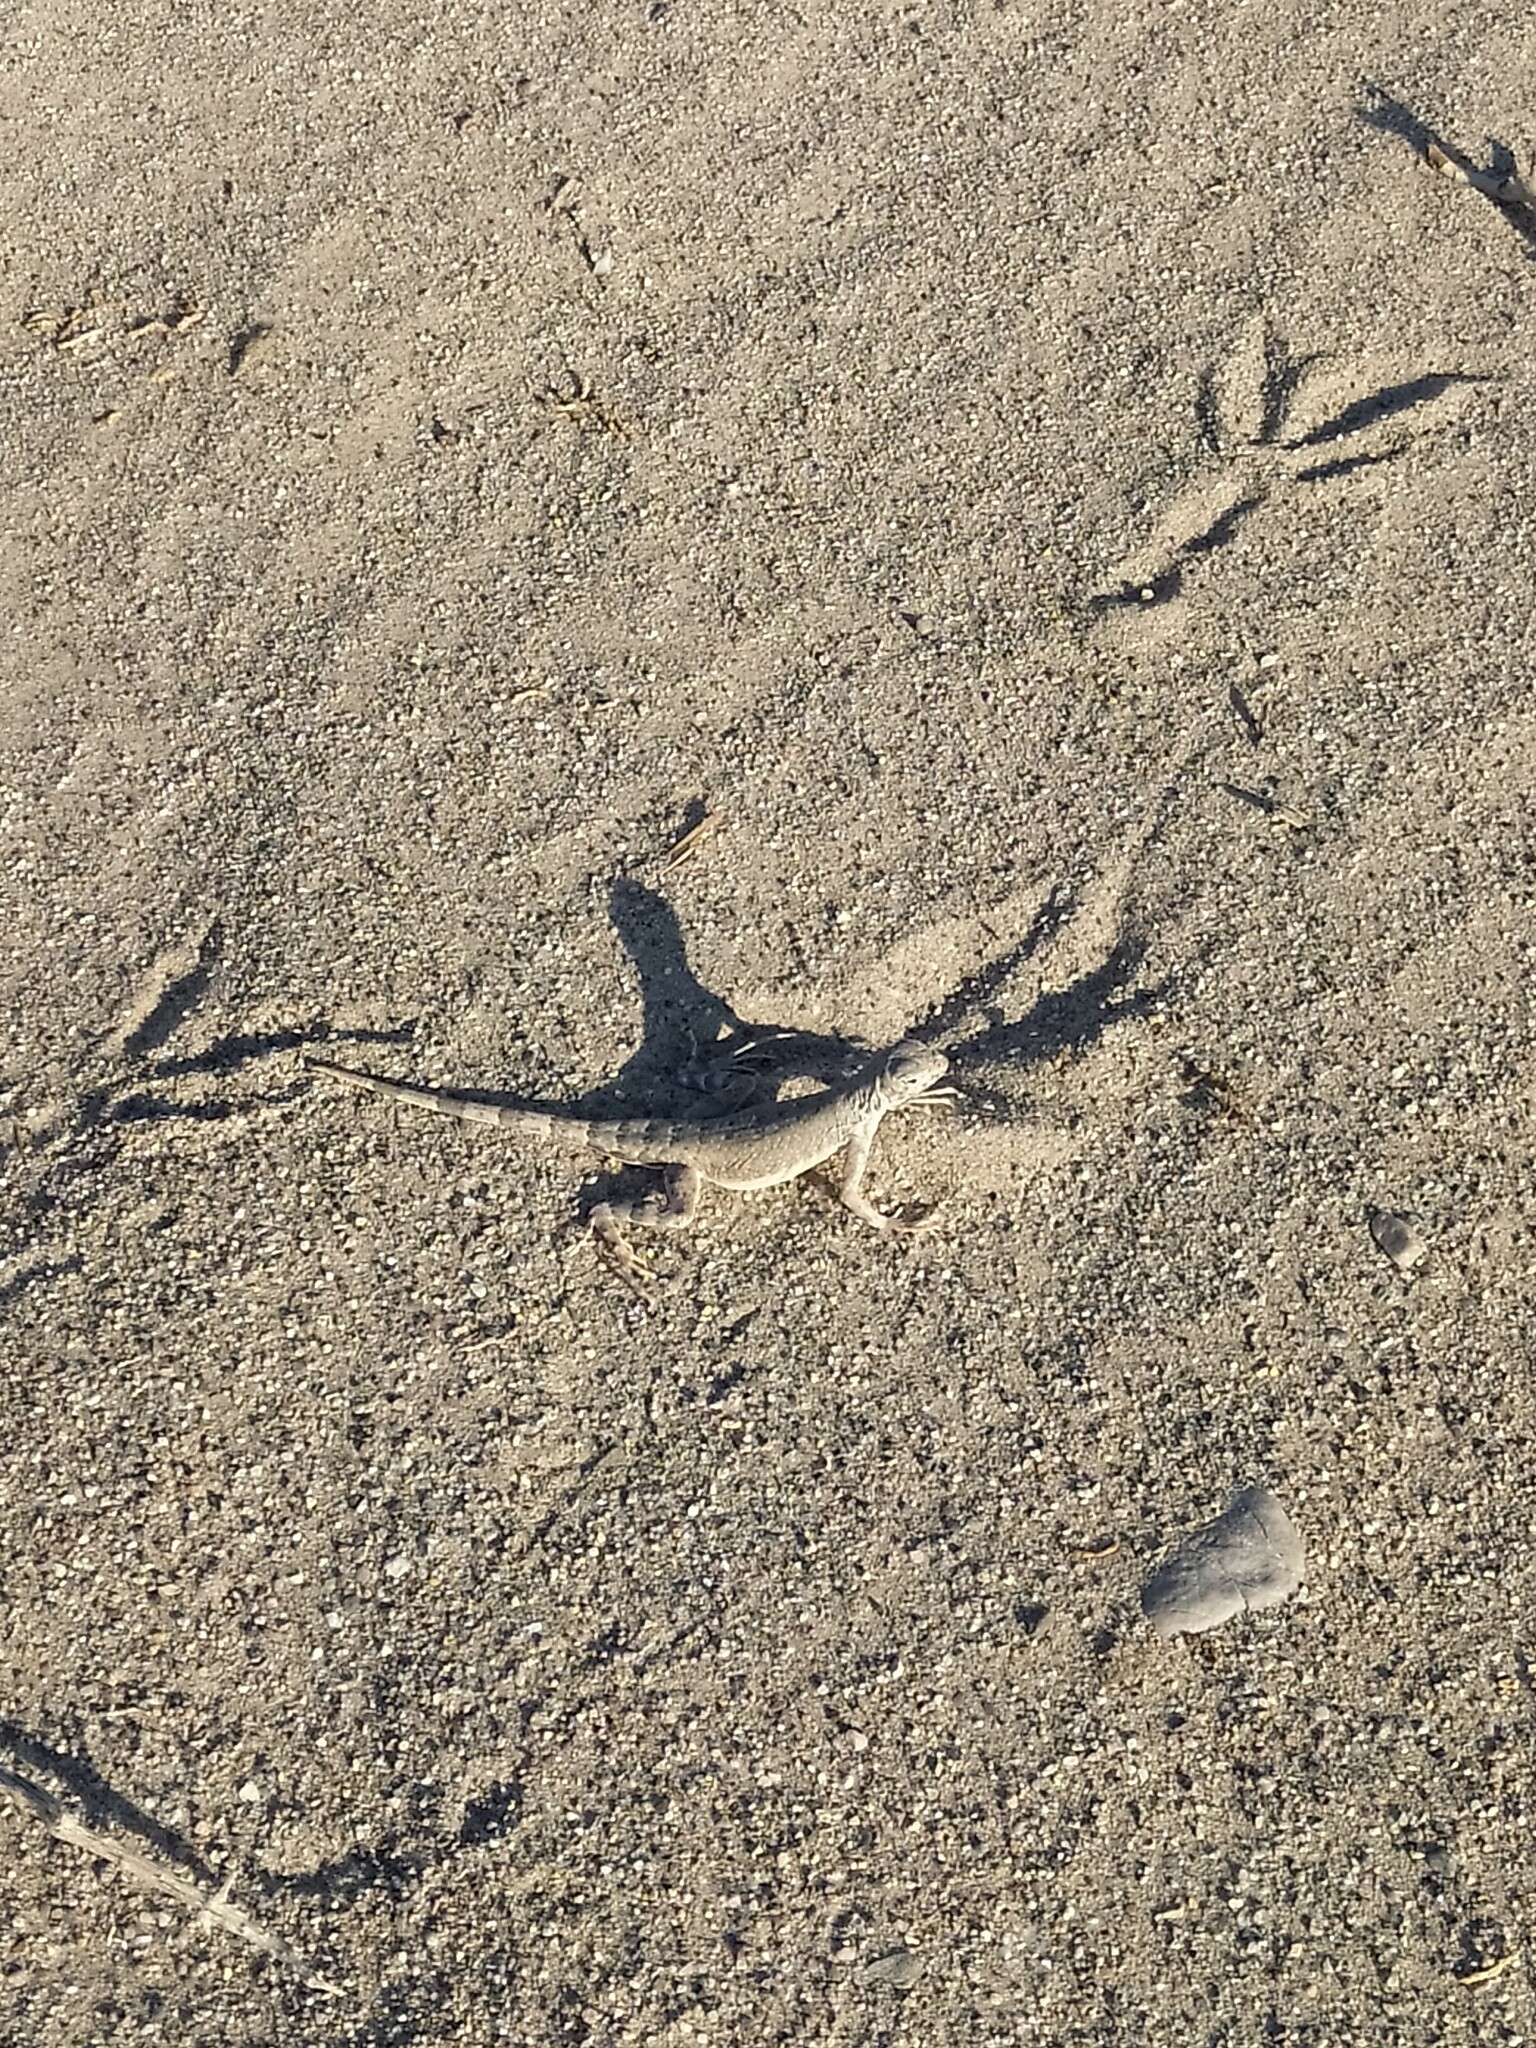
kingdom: Animalia
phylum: Chordata
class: Squamata
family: Phrynosomatidae
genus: Callisaurus
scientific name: Callisaurus draconoides
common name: Zebra-tailed lizard
